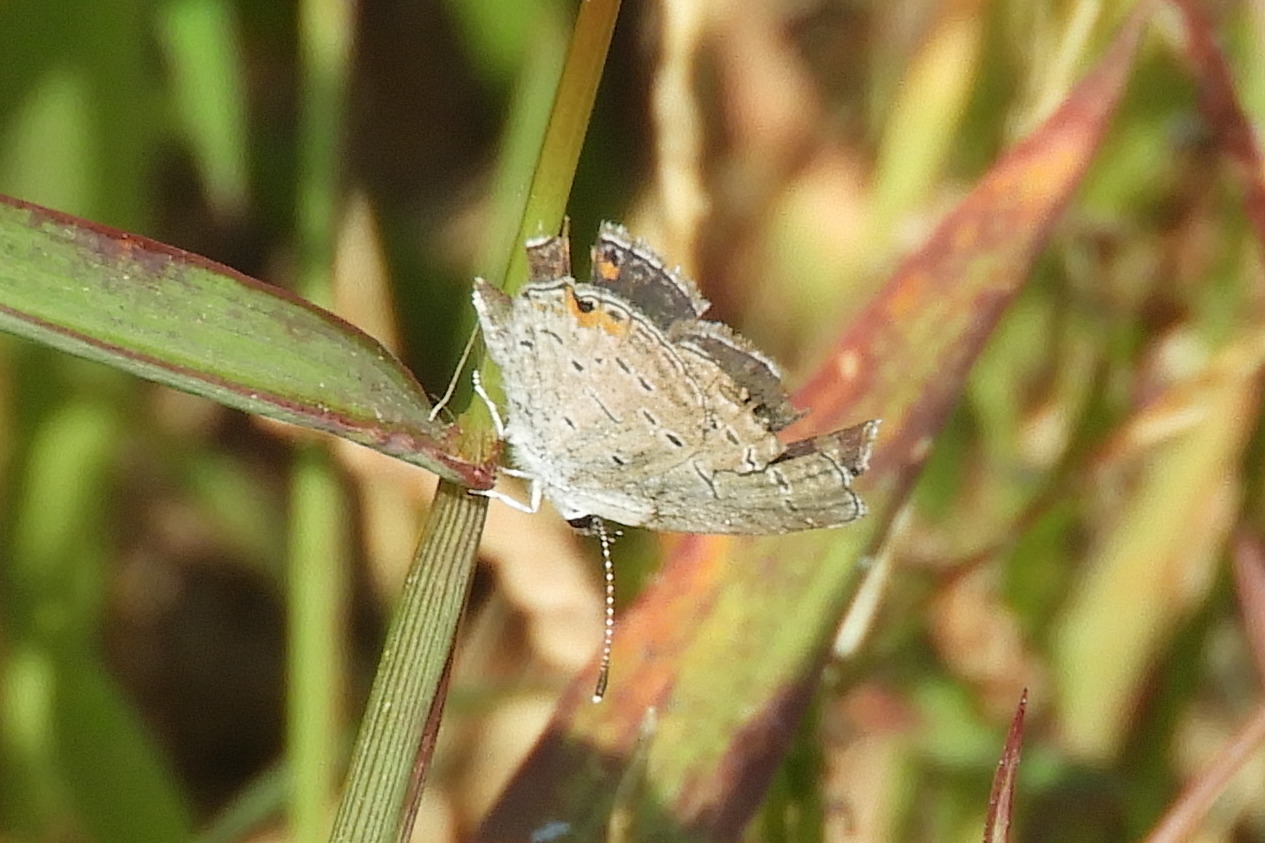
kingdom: Animalia
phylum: Arthropoda
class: Insecta
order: Lepidoptera
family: Lycaenidae
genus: Elkalyce
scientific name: Elkalyce comyntas
